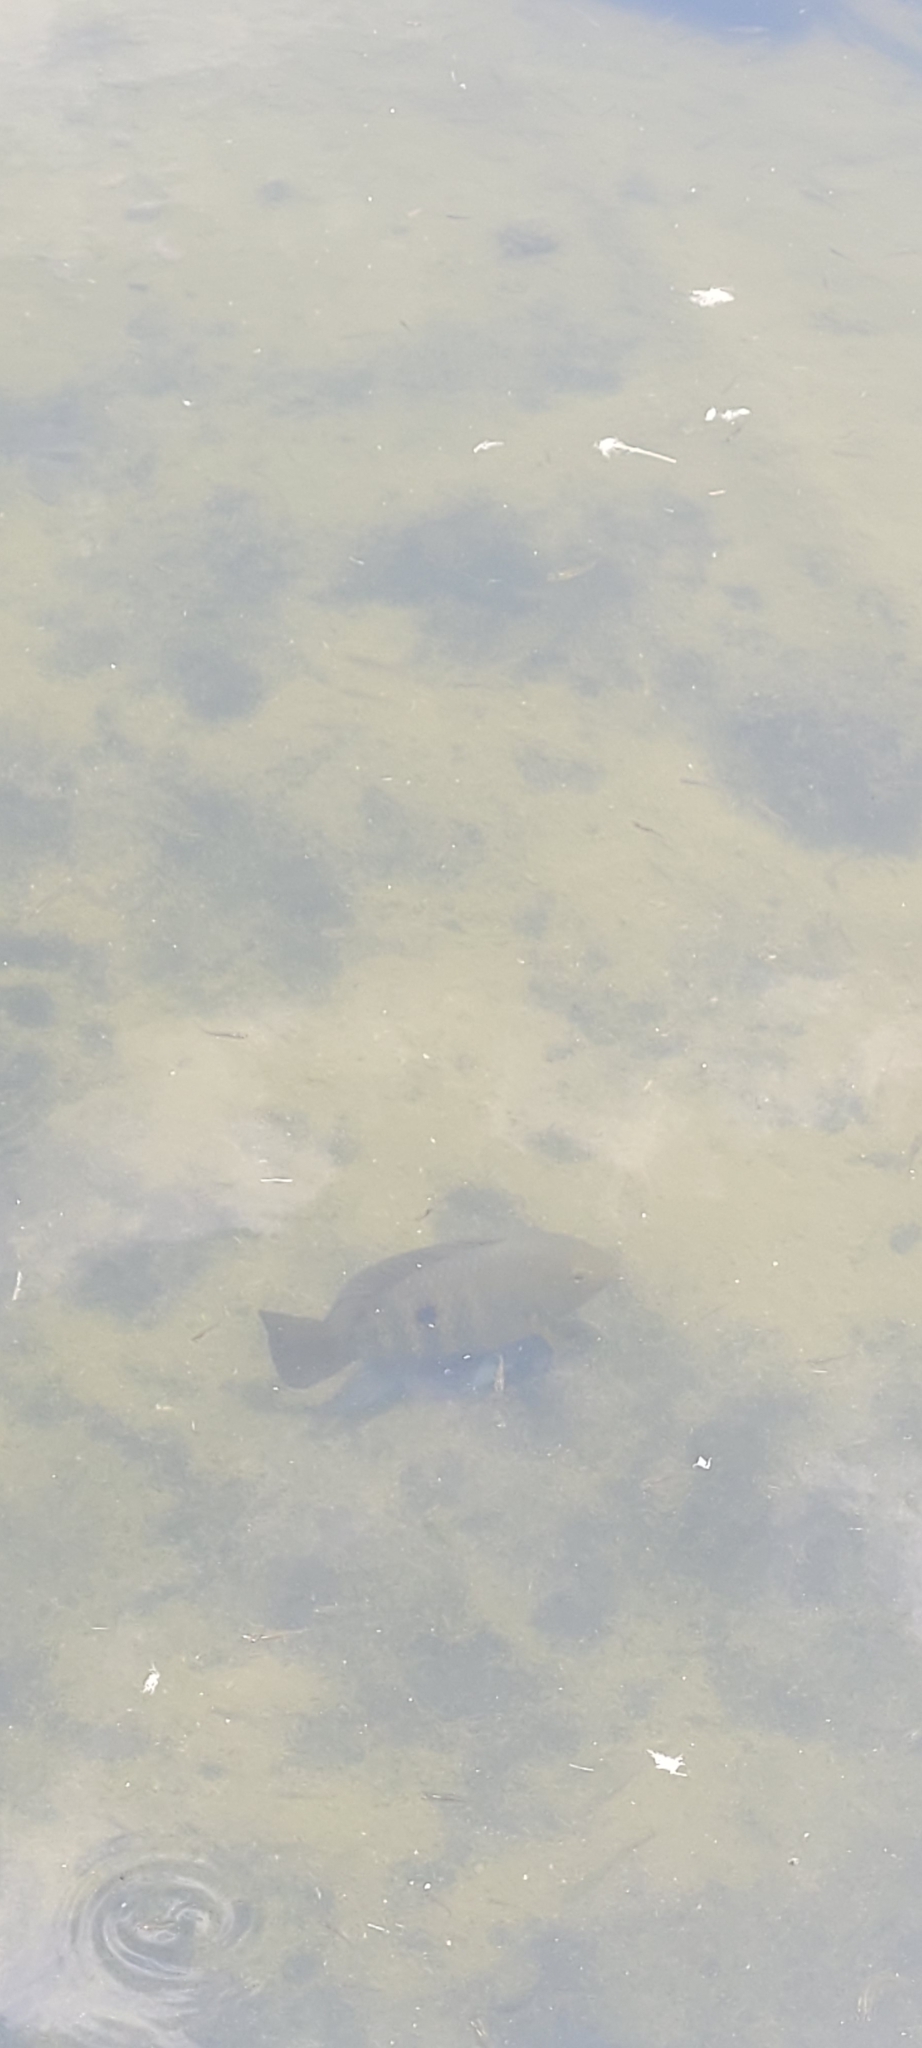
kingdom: Animalia
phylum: Chordata
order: Perciformes
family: Cichlidae
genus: Australoheros
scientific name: Australoheros facetus
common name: Chameleon cichlid
